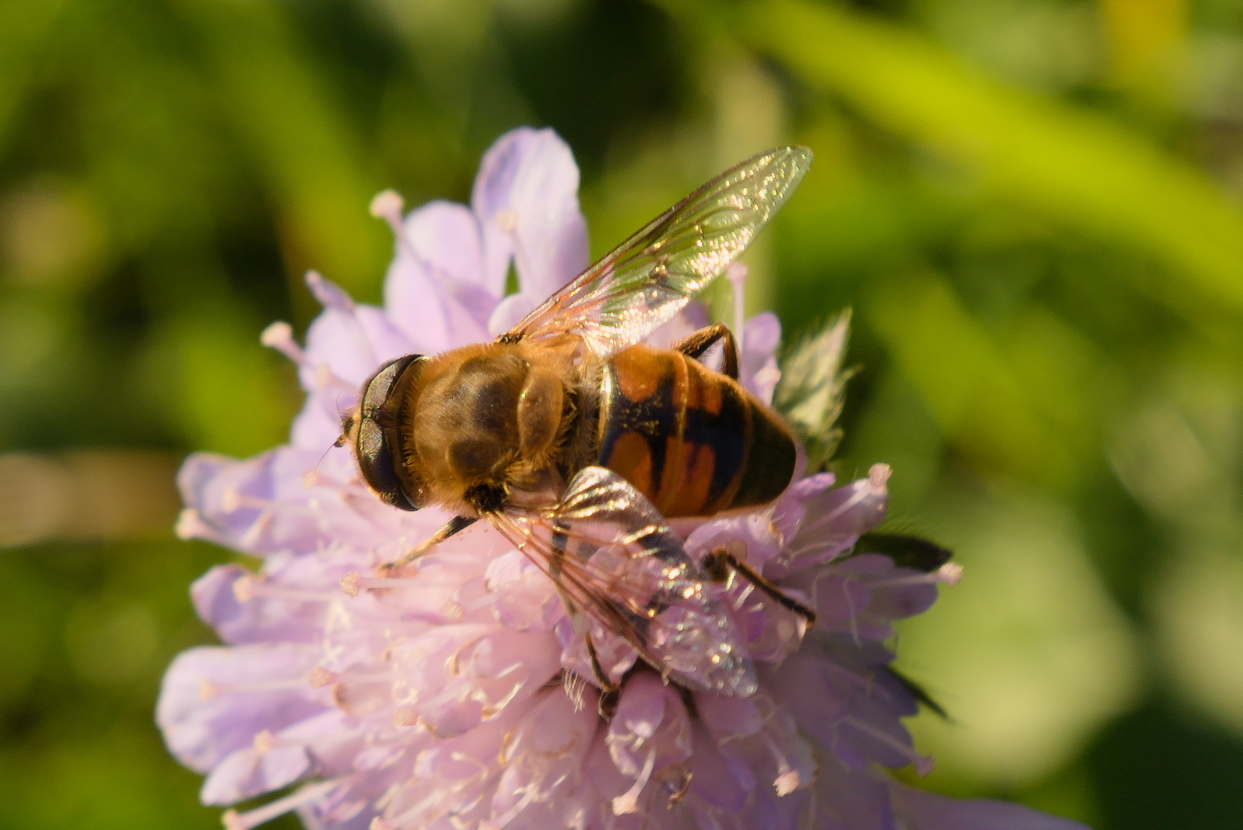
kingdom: Animalia
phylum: Arthropoda
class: Insecta
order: Diptera
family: Syrphidae
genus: Eristalis
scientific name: Eristalis tenax
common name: Drone fly
